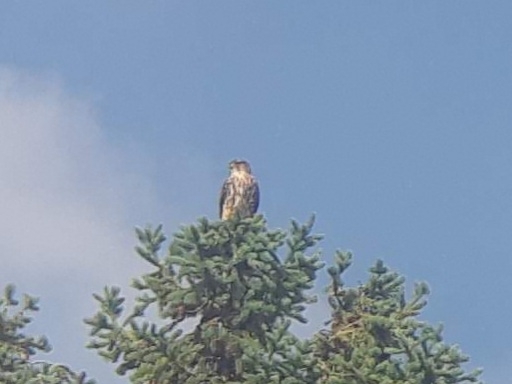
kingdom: Animalia
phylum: Chordata
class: Aves
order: Falconiformes
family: Falconidae
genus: Falco
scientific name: Falco columbarius
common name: Merlin
